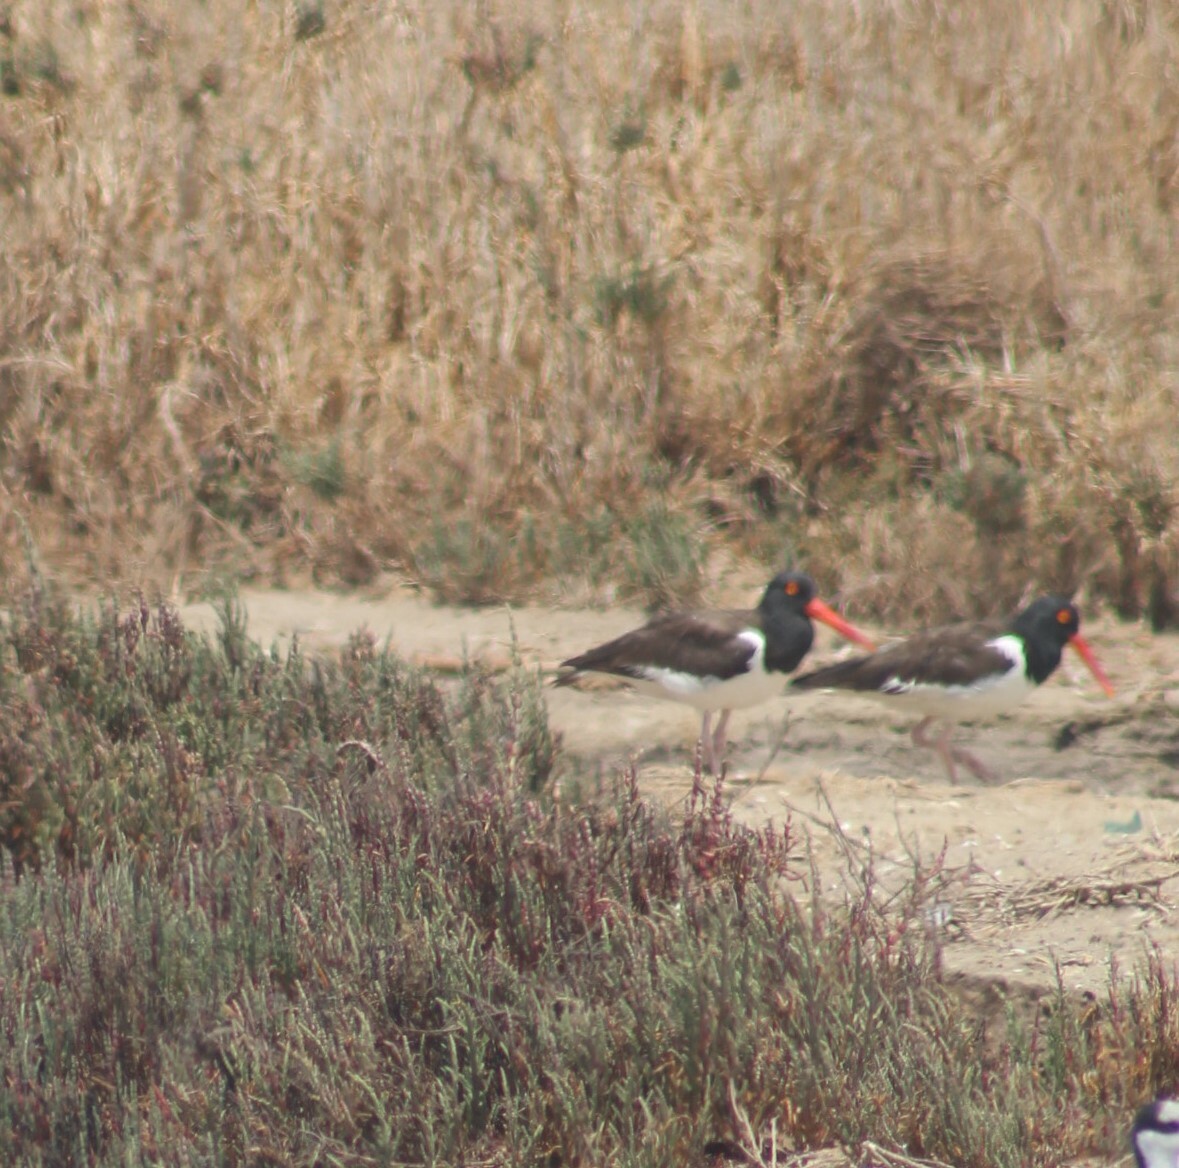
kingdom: Animalia
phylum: Chordata
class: Aves
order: Charadriiformes
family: Haematopodidae
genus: Haematopus
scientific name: Haematopus palliatus
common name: American oystercatcher
